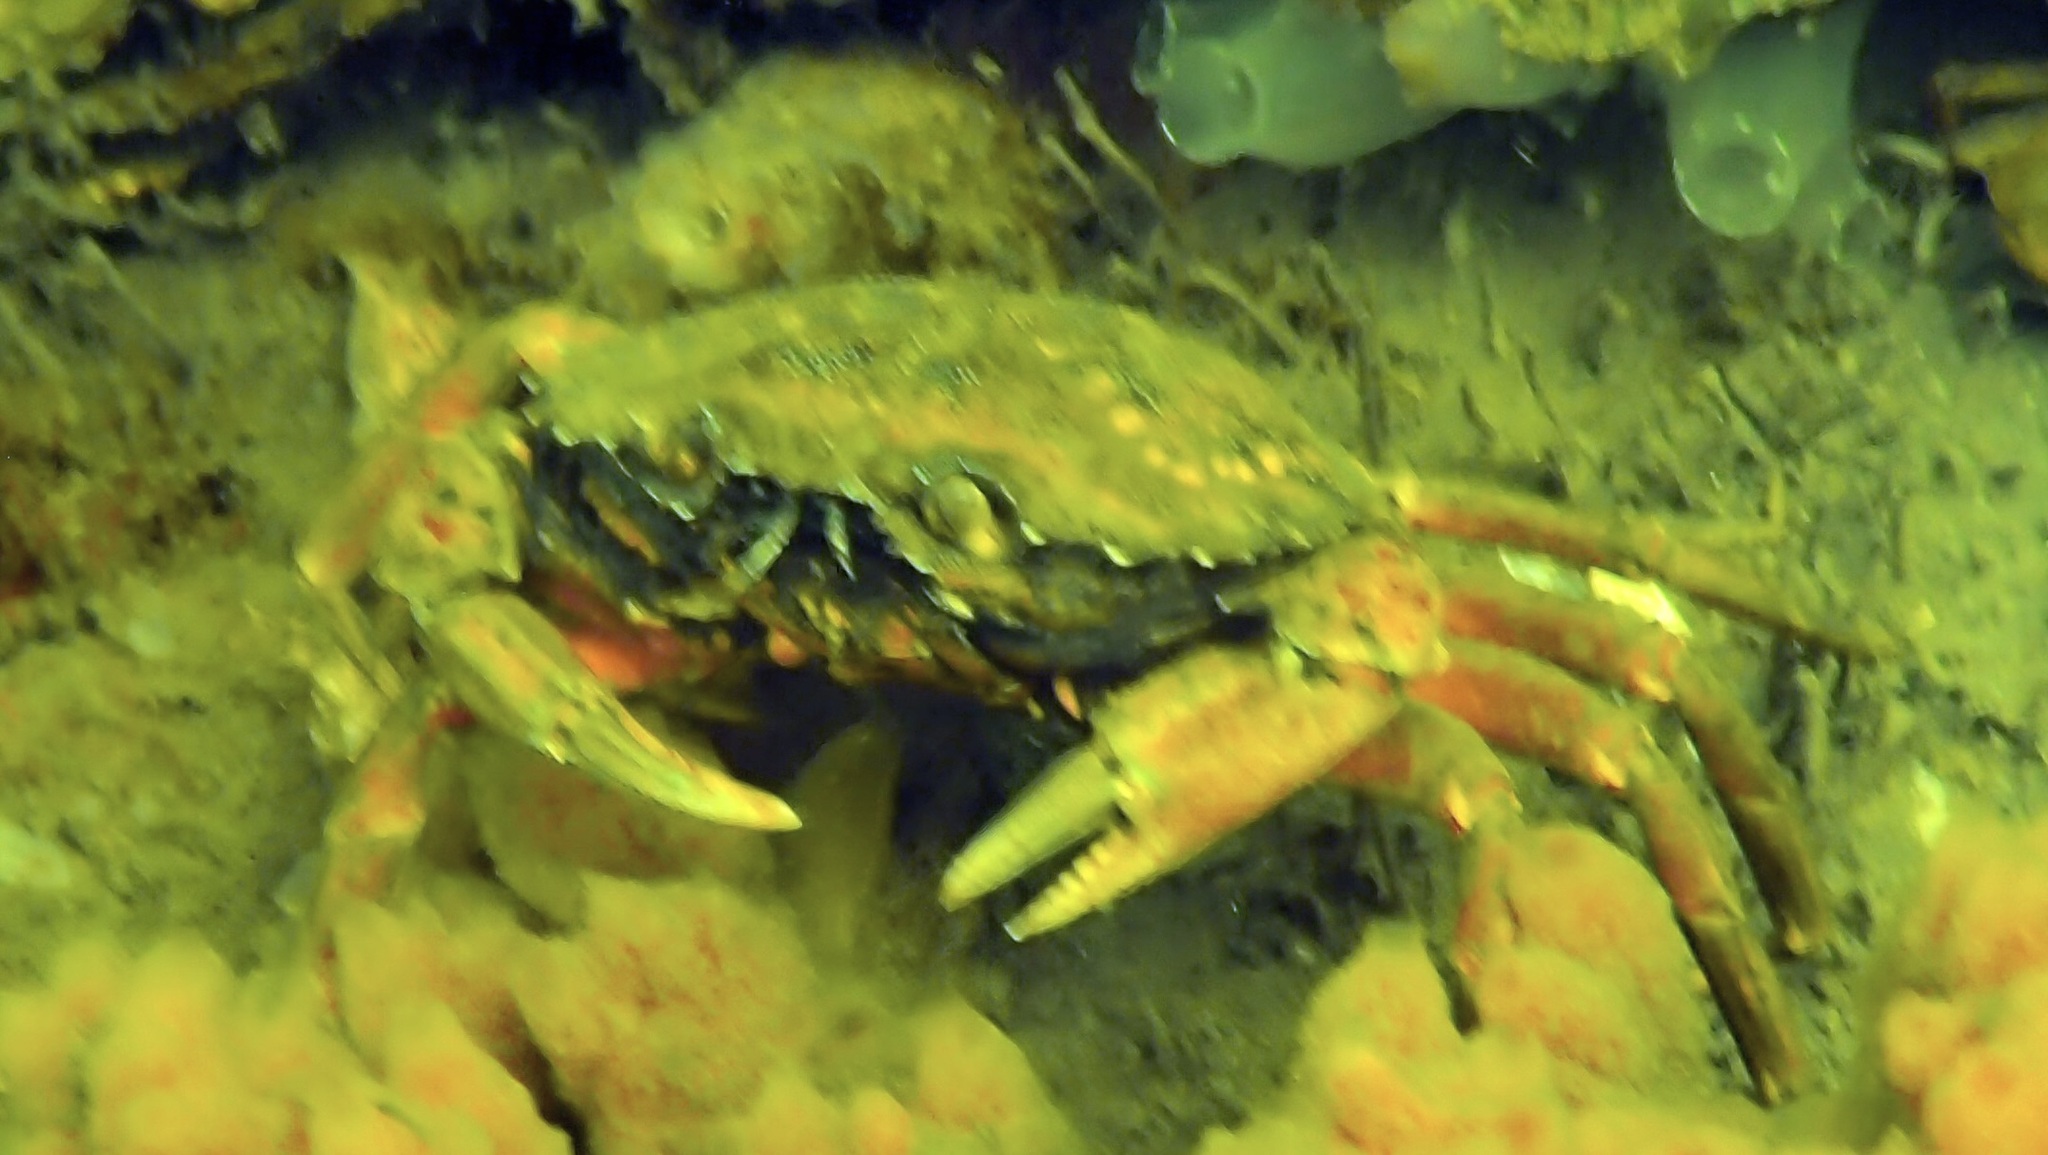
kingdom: Animalia
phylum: Arthropoda
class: Malacostraca
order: Decapoda
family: Carcinidae
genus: Carcinus
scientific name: Carcinus maenas
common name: European green crab
